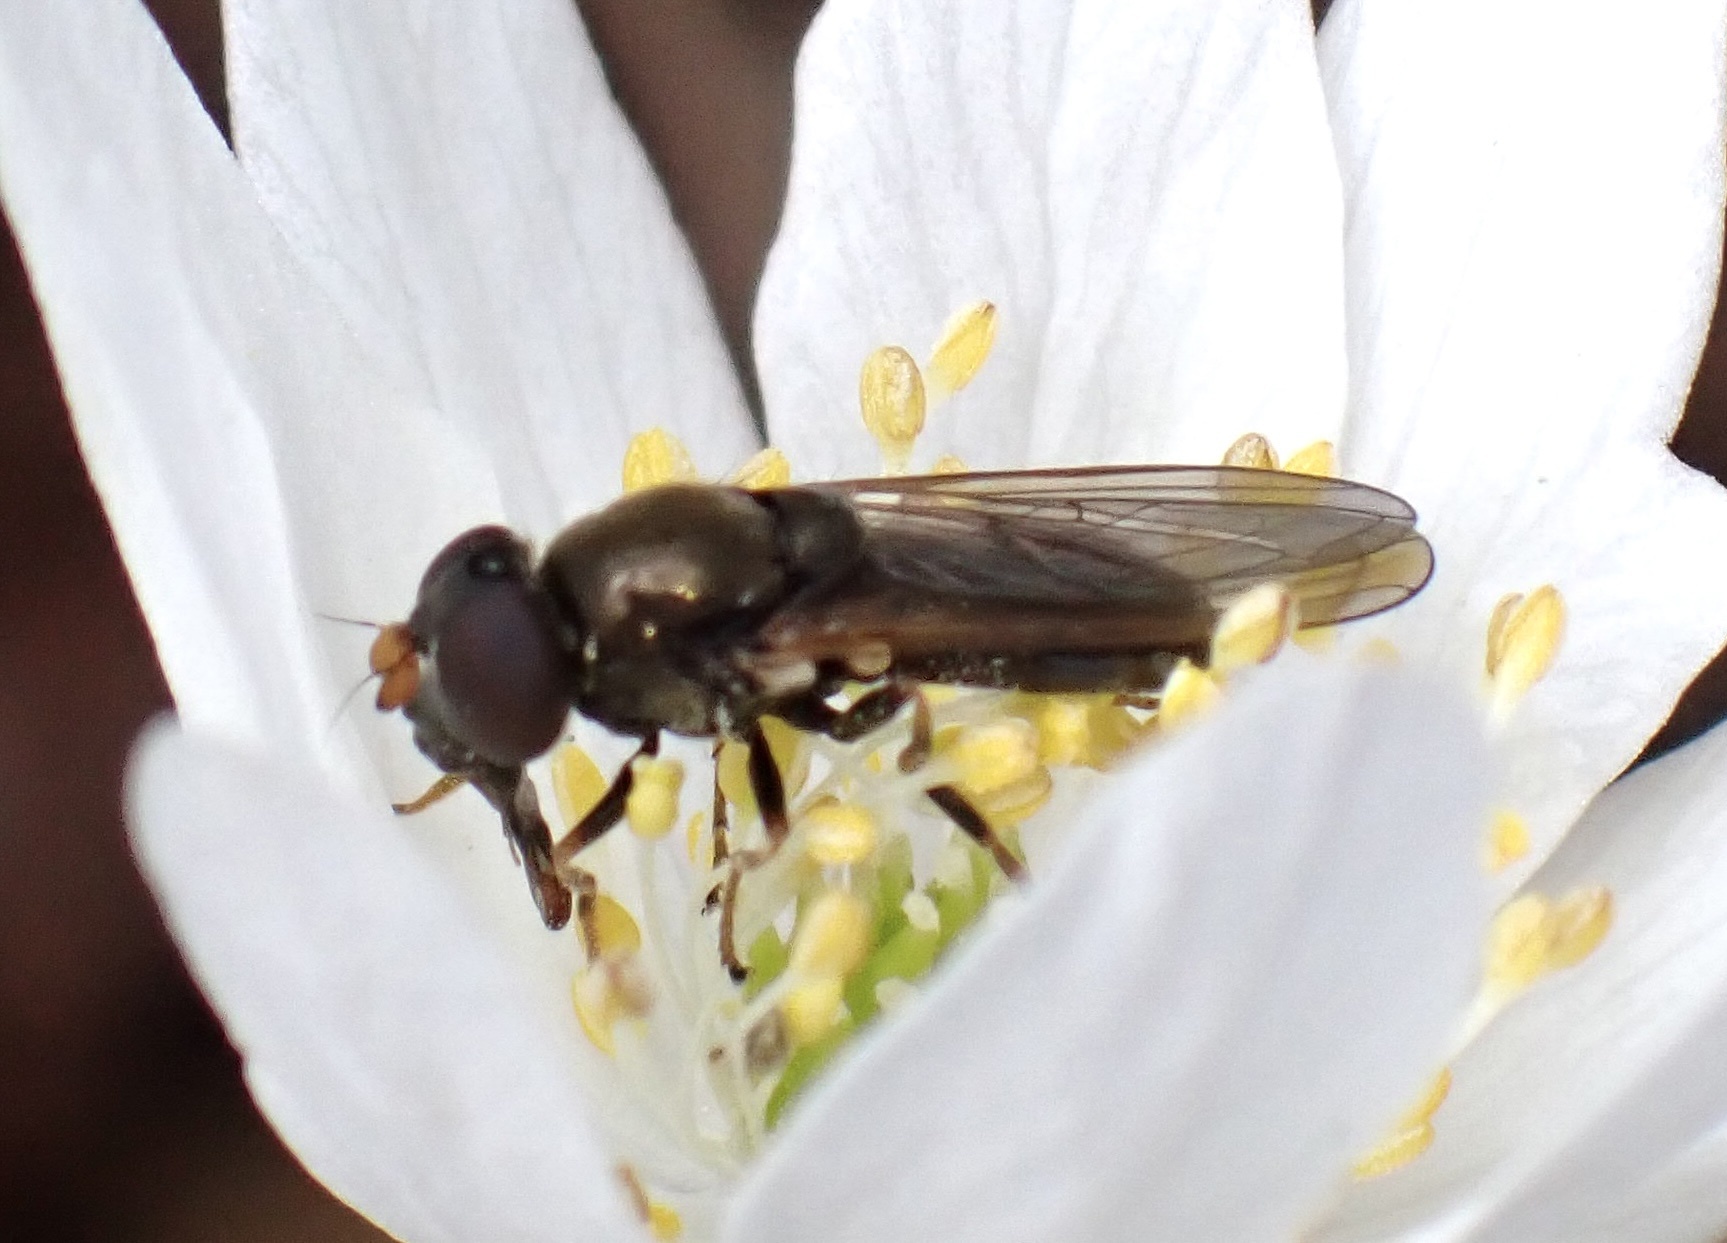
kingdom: Animalia
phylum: Arthropoda
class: Insecta
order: Diptera
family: Syrphidae
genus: Cheilosia
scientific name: Cheilosia pagana
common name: Hover fly
